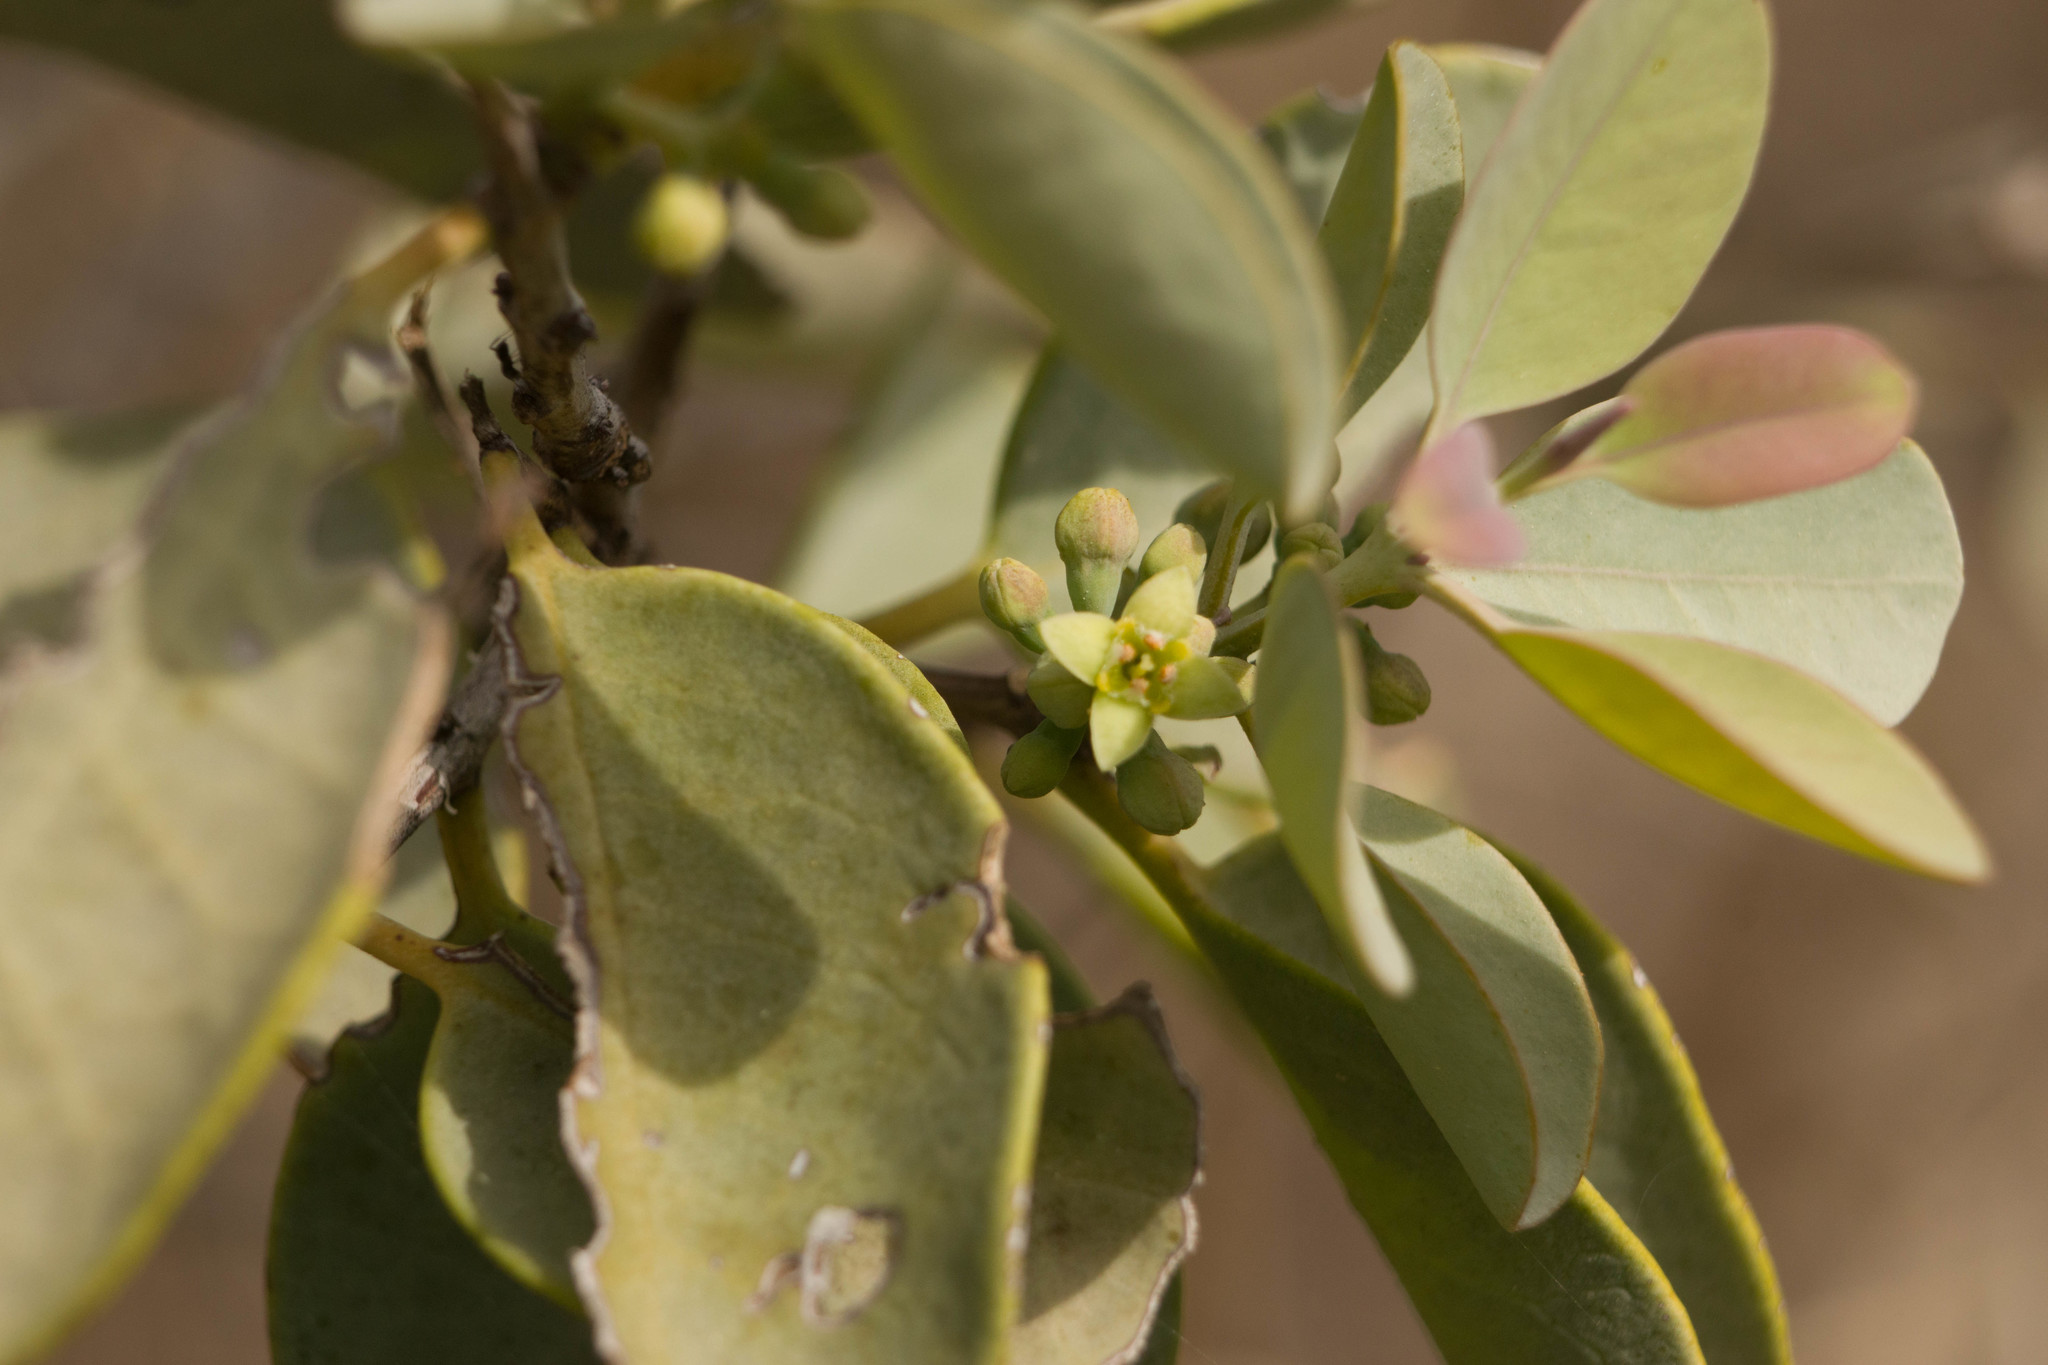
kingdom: Plantae
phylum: Tracheophyta
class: Magnoliopsida
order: Santalales
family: Santalaceae
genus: Santalum
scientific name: Santalum ellipticum
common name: Coast sandalwood
